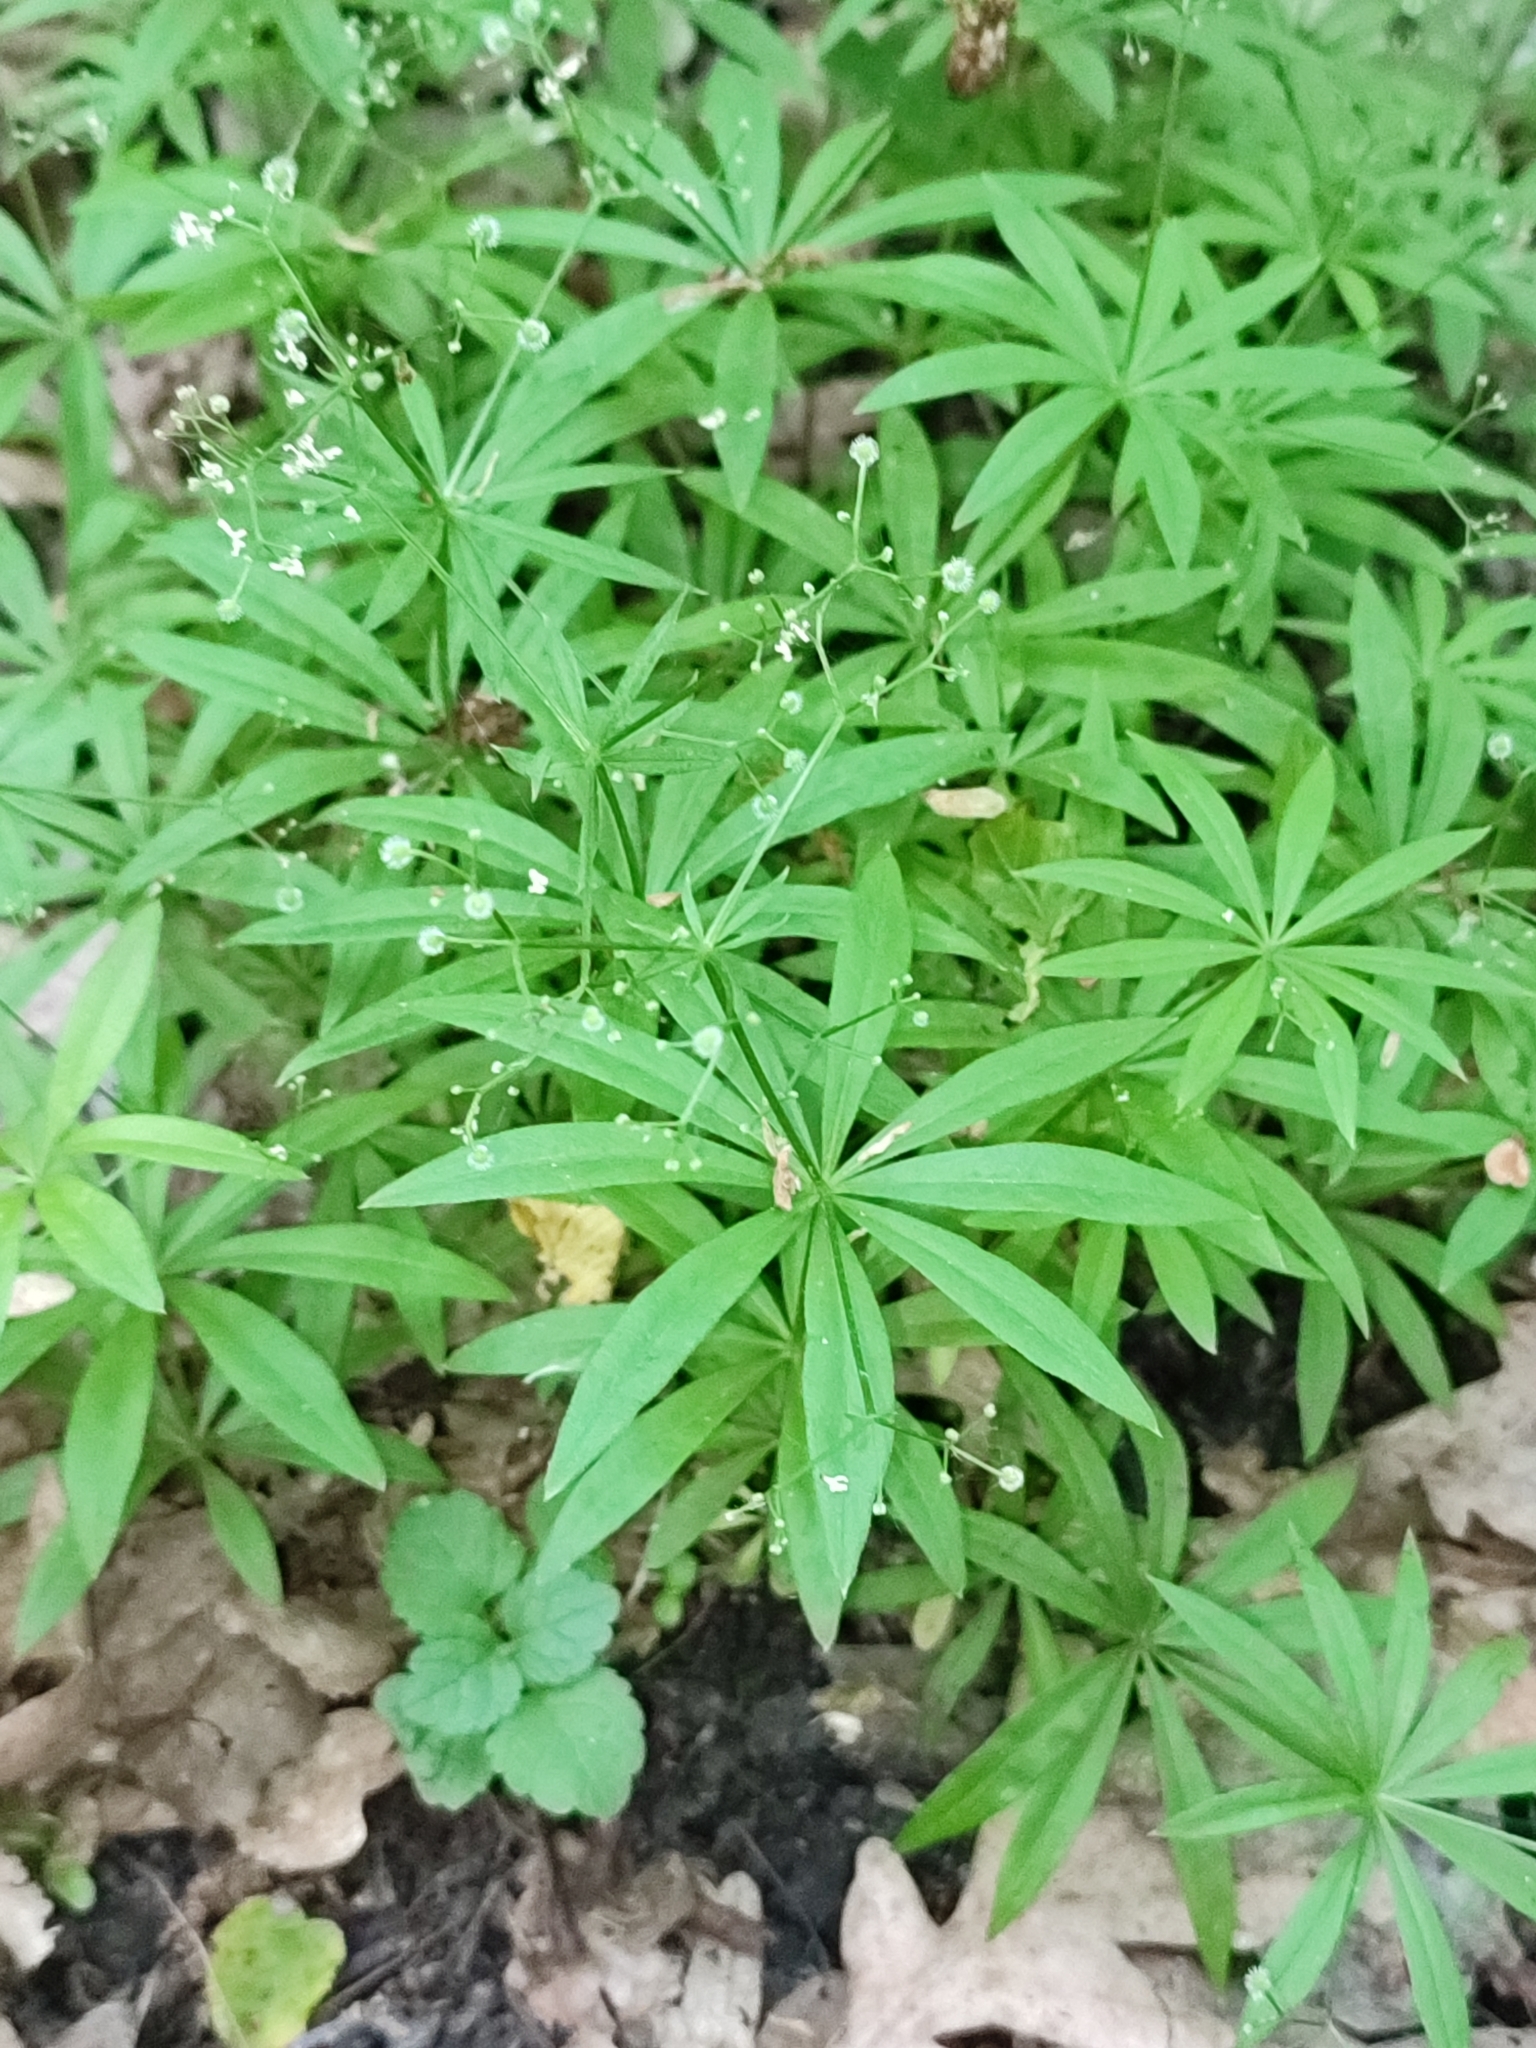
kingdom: Plantae
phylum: Tracheophyta
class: Magnoliopsida
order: Gentianales
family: Rubiaceae
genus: Galium
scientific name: Galium odoratum
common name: Sweet woodruff
